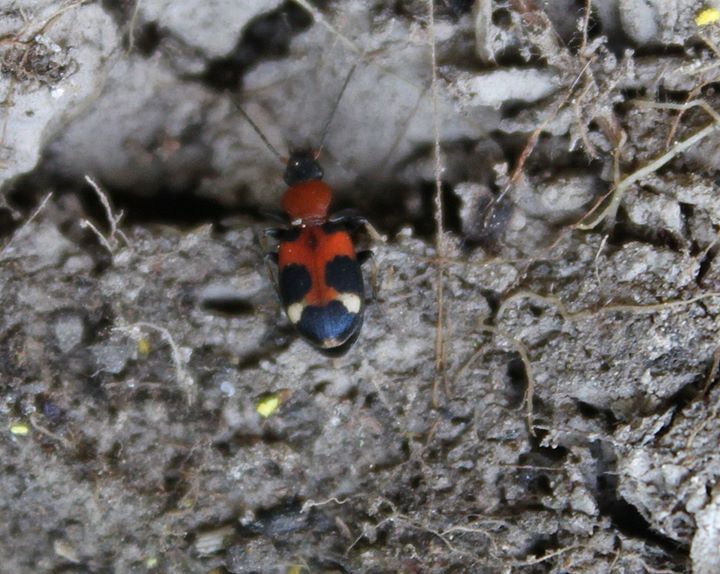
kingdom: Animalia
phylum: Arthropoda
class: Insecta
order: Coleoptera
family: Carabidae
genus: Callistus
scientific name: Callistus lunatus
